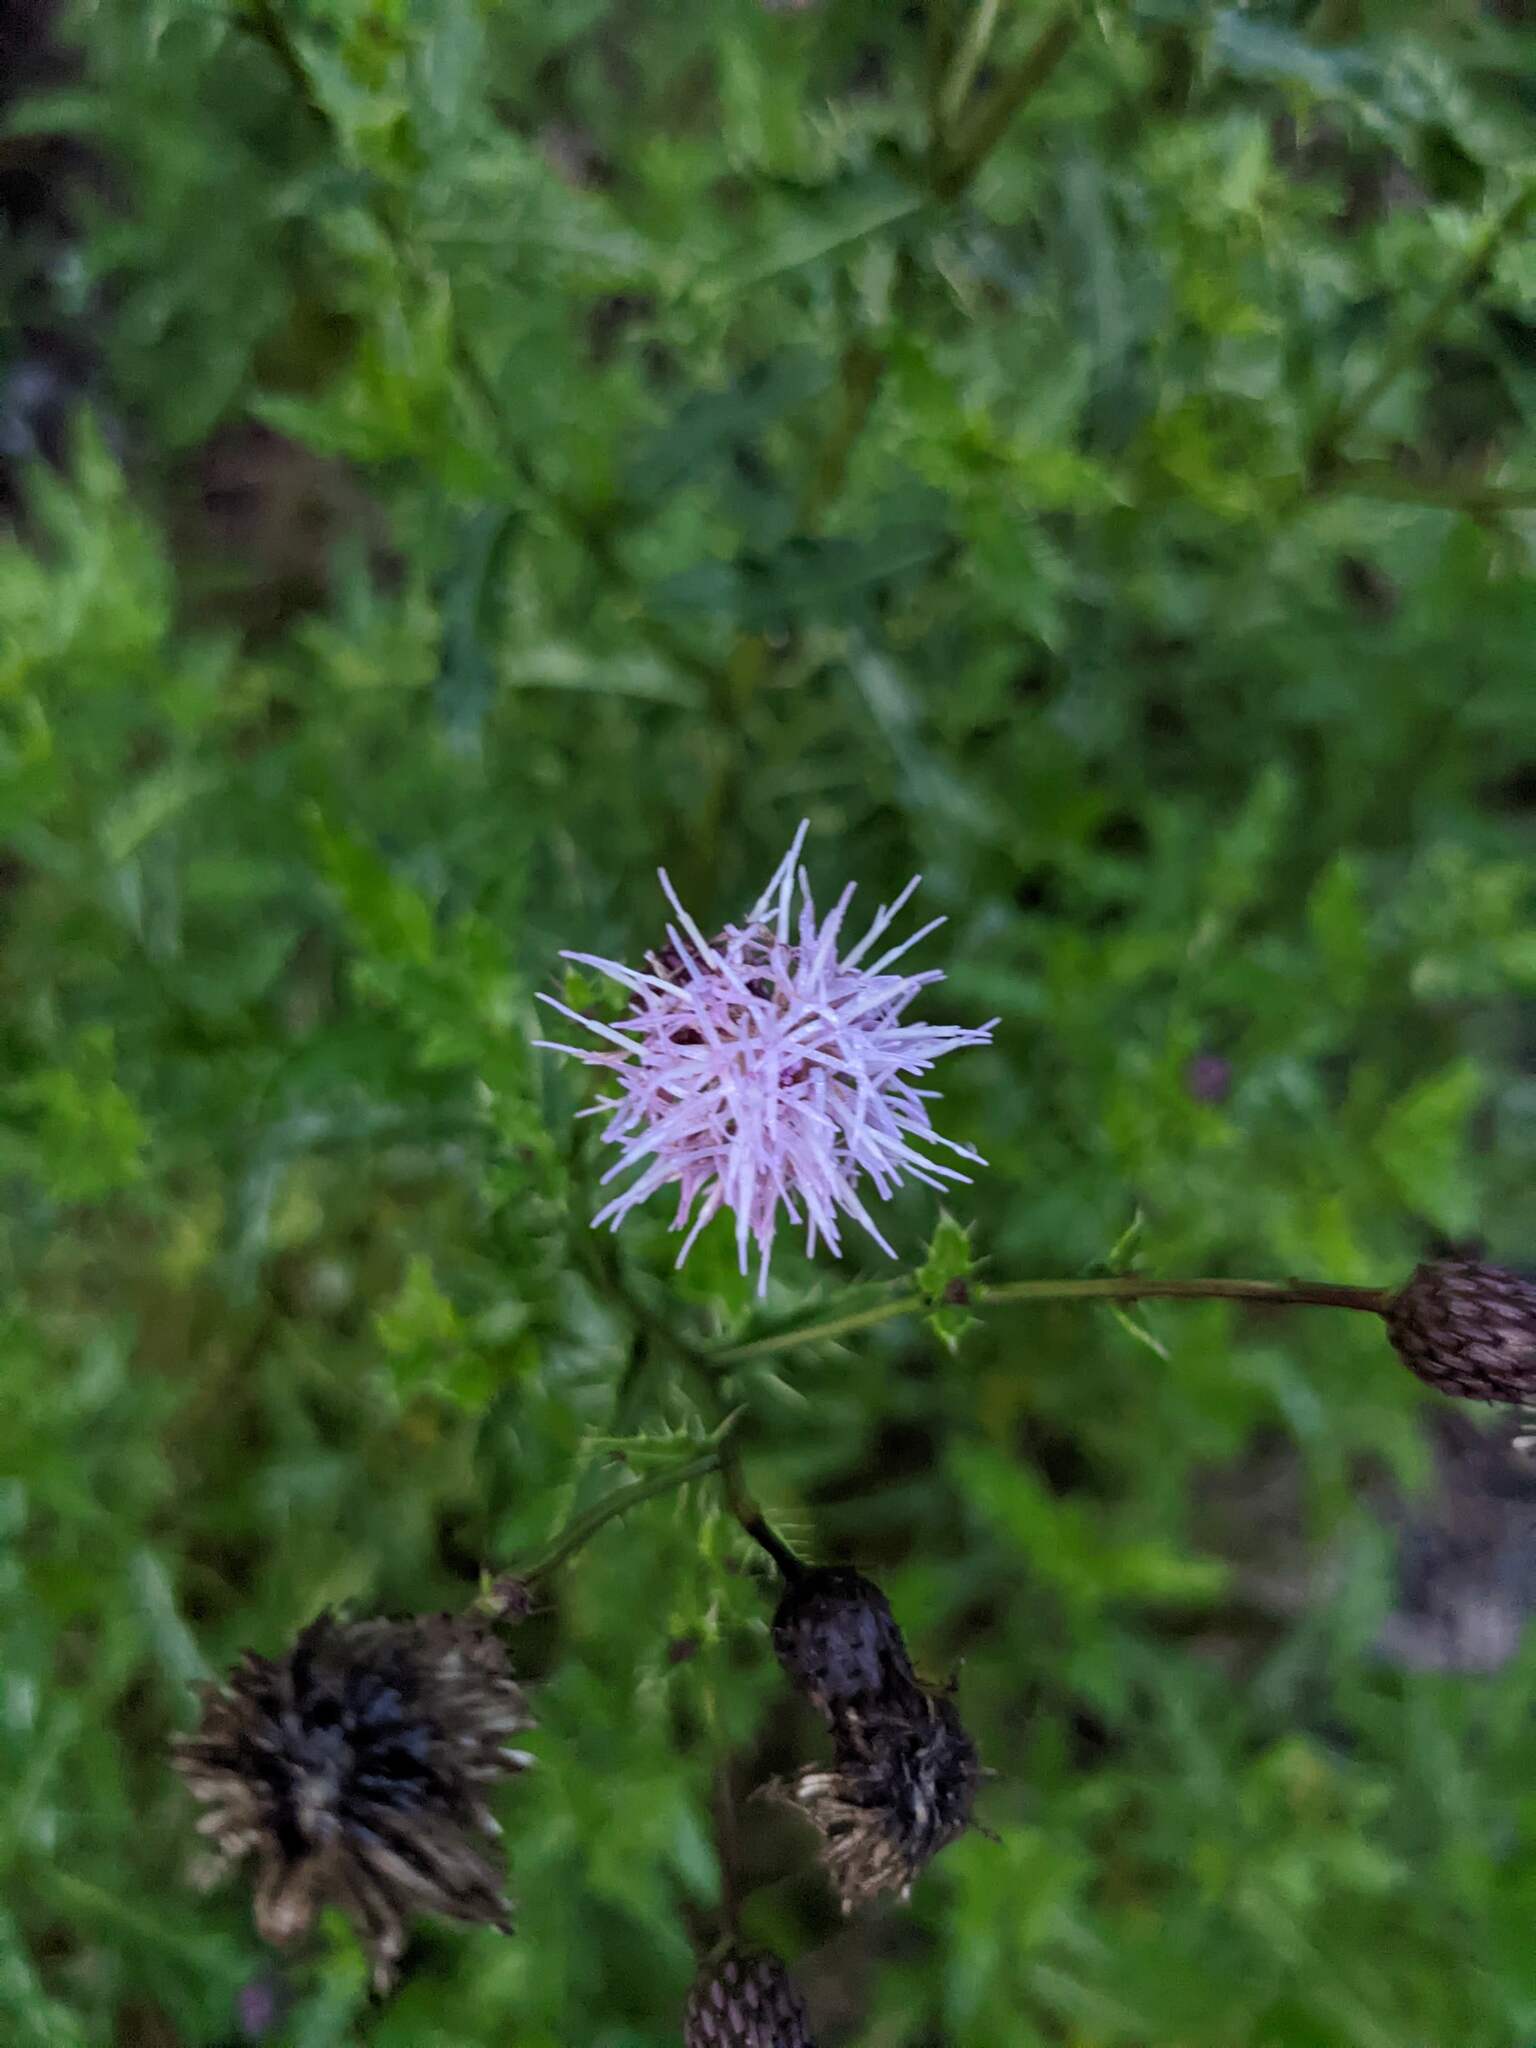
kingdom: Plantae
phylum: Tracheophyta
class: Magnoliopsida
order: Asterales
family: Asteraceae
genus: Cirsium
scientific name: Cirsium arvense
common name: Creeping thistle
